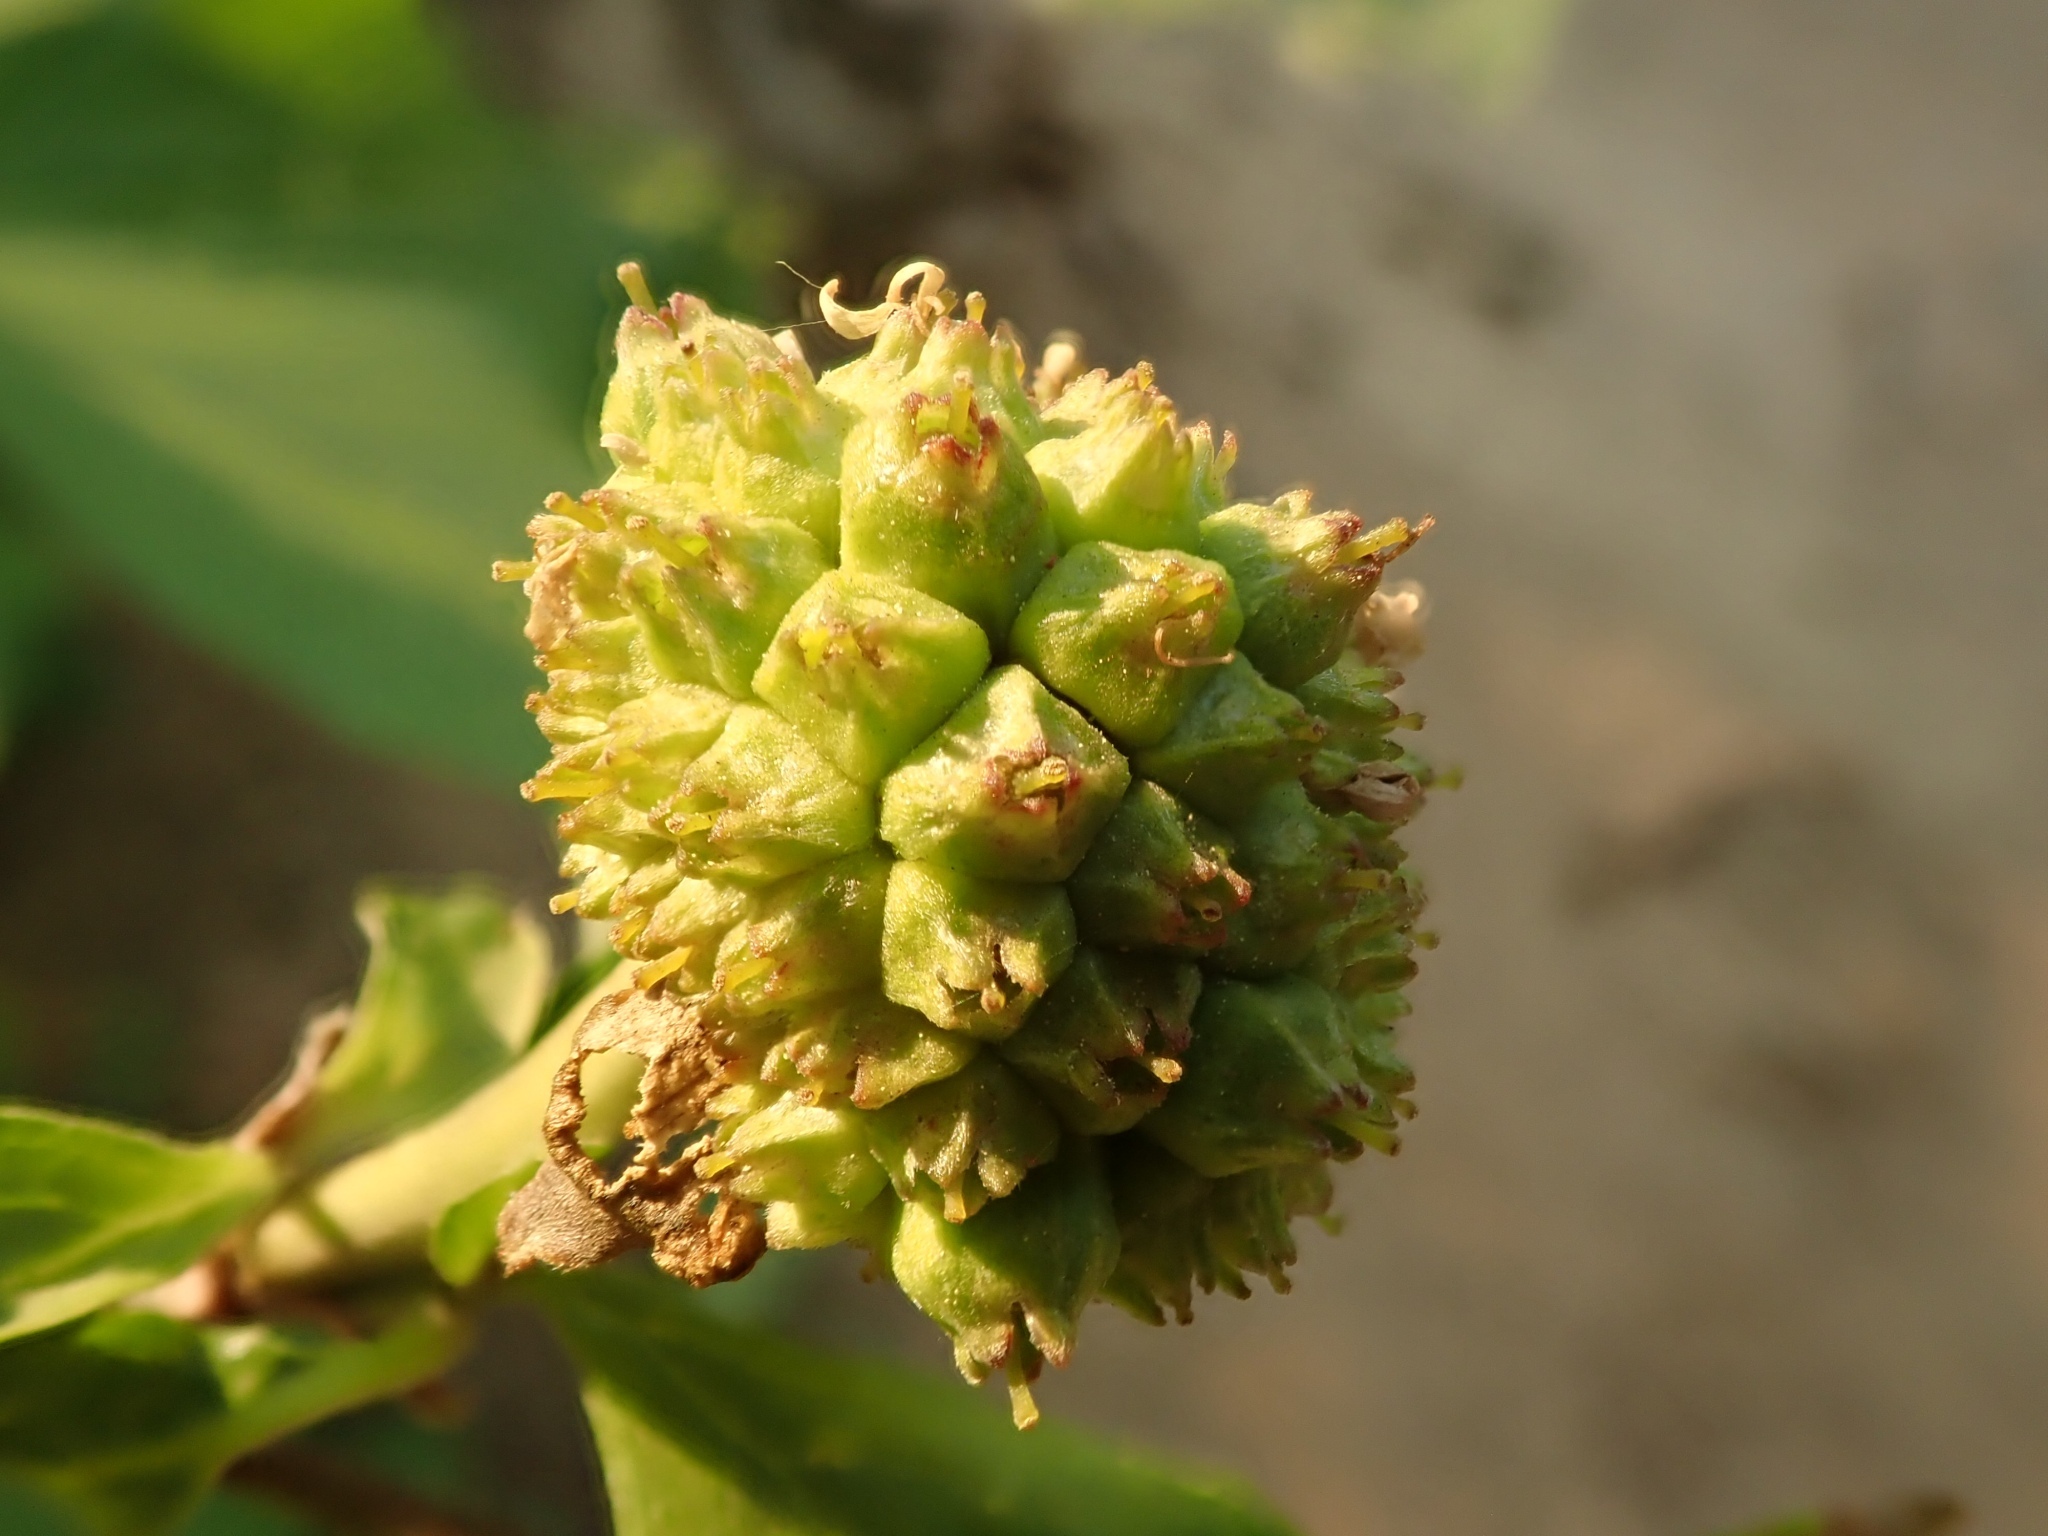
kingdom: Plantae
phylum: Tracheophyta
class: Magnoliopsida
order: Cornales
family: Cornaceae
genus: Cornus
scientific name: Cornus nuttallii
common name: Pacific dogwood
